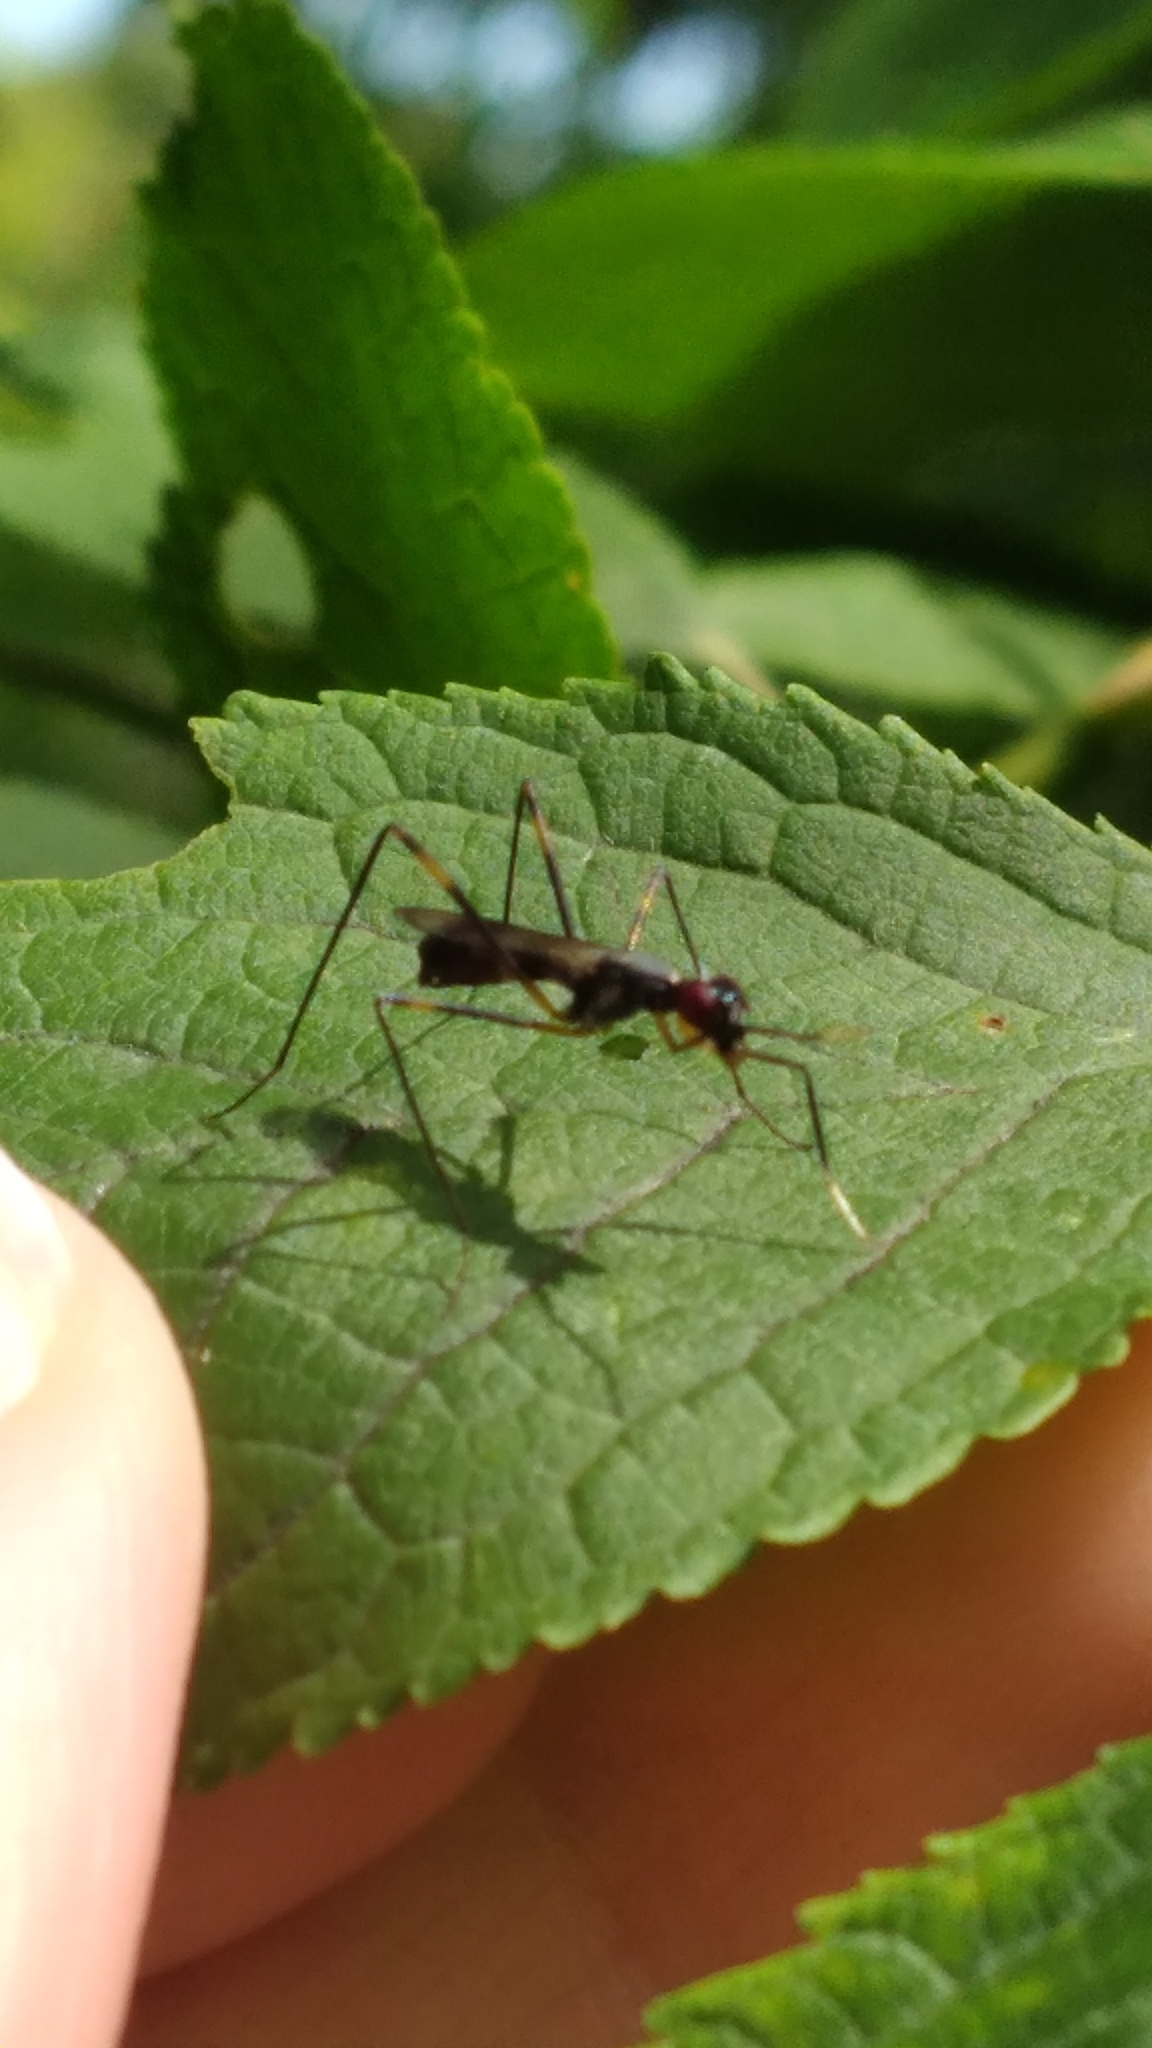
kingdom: Animalia
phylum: Arthropoda
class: Insecta
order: Diptera
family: Micropezidae
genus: Rainieria
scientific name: Rainieria antennaepes
